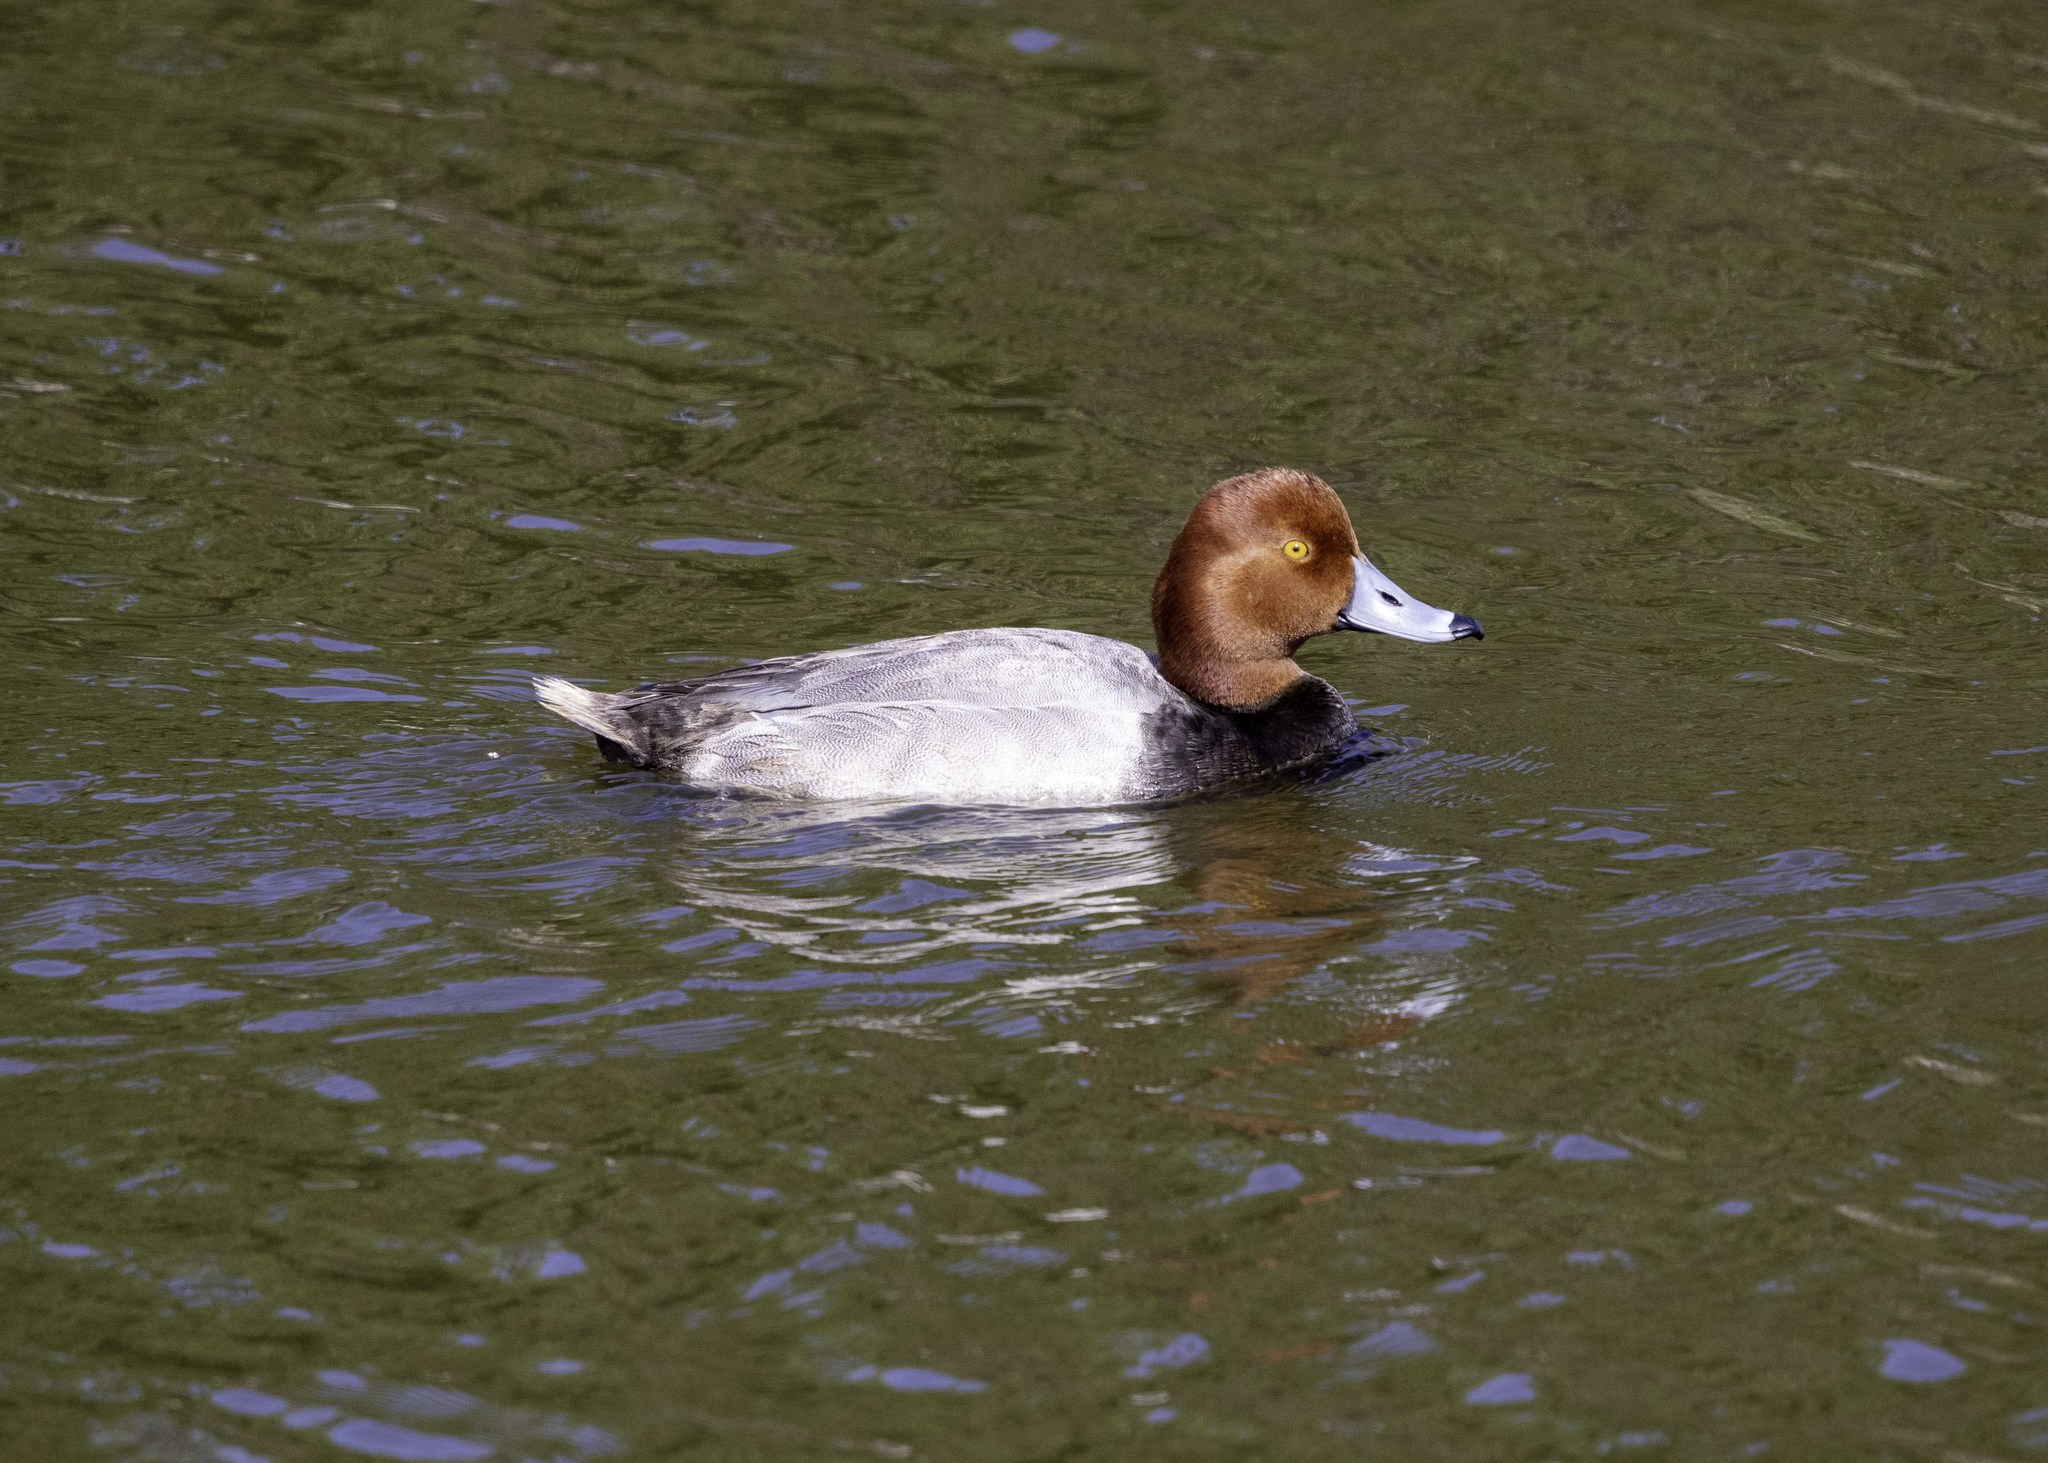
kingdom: Animalia
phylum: Chordata
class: Aves
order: Anseriformes
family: Anatidae
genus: Aythya
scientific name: Aythya americana
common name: Redhead
